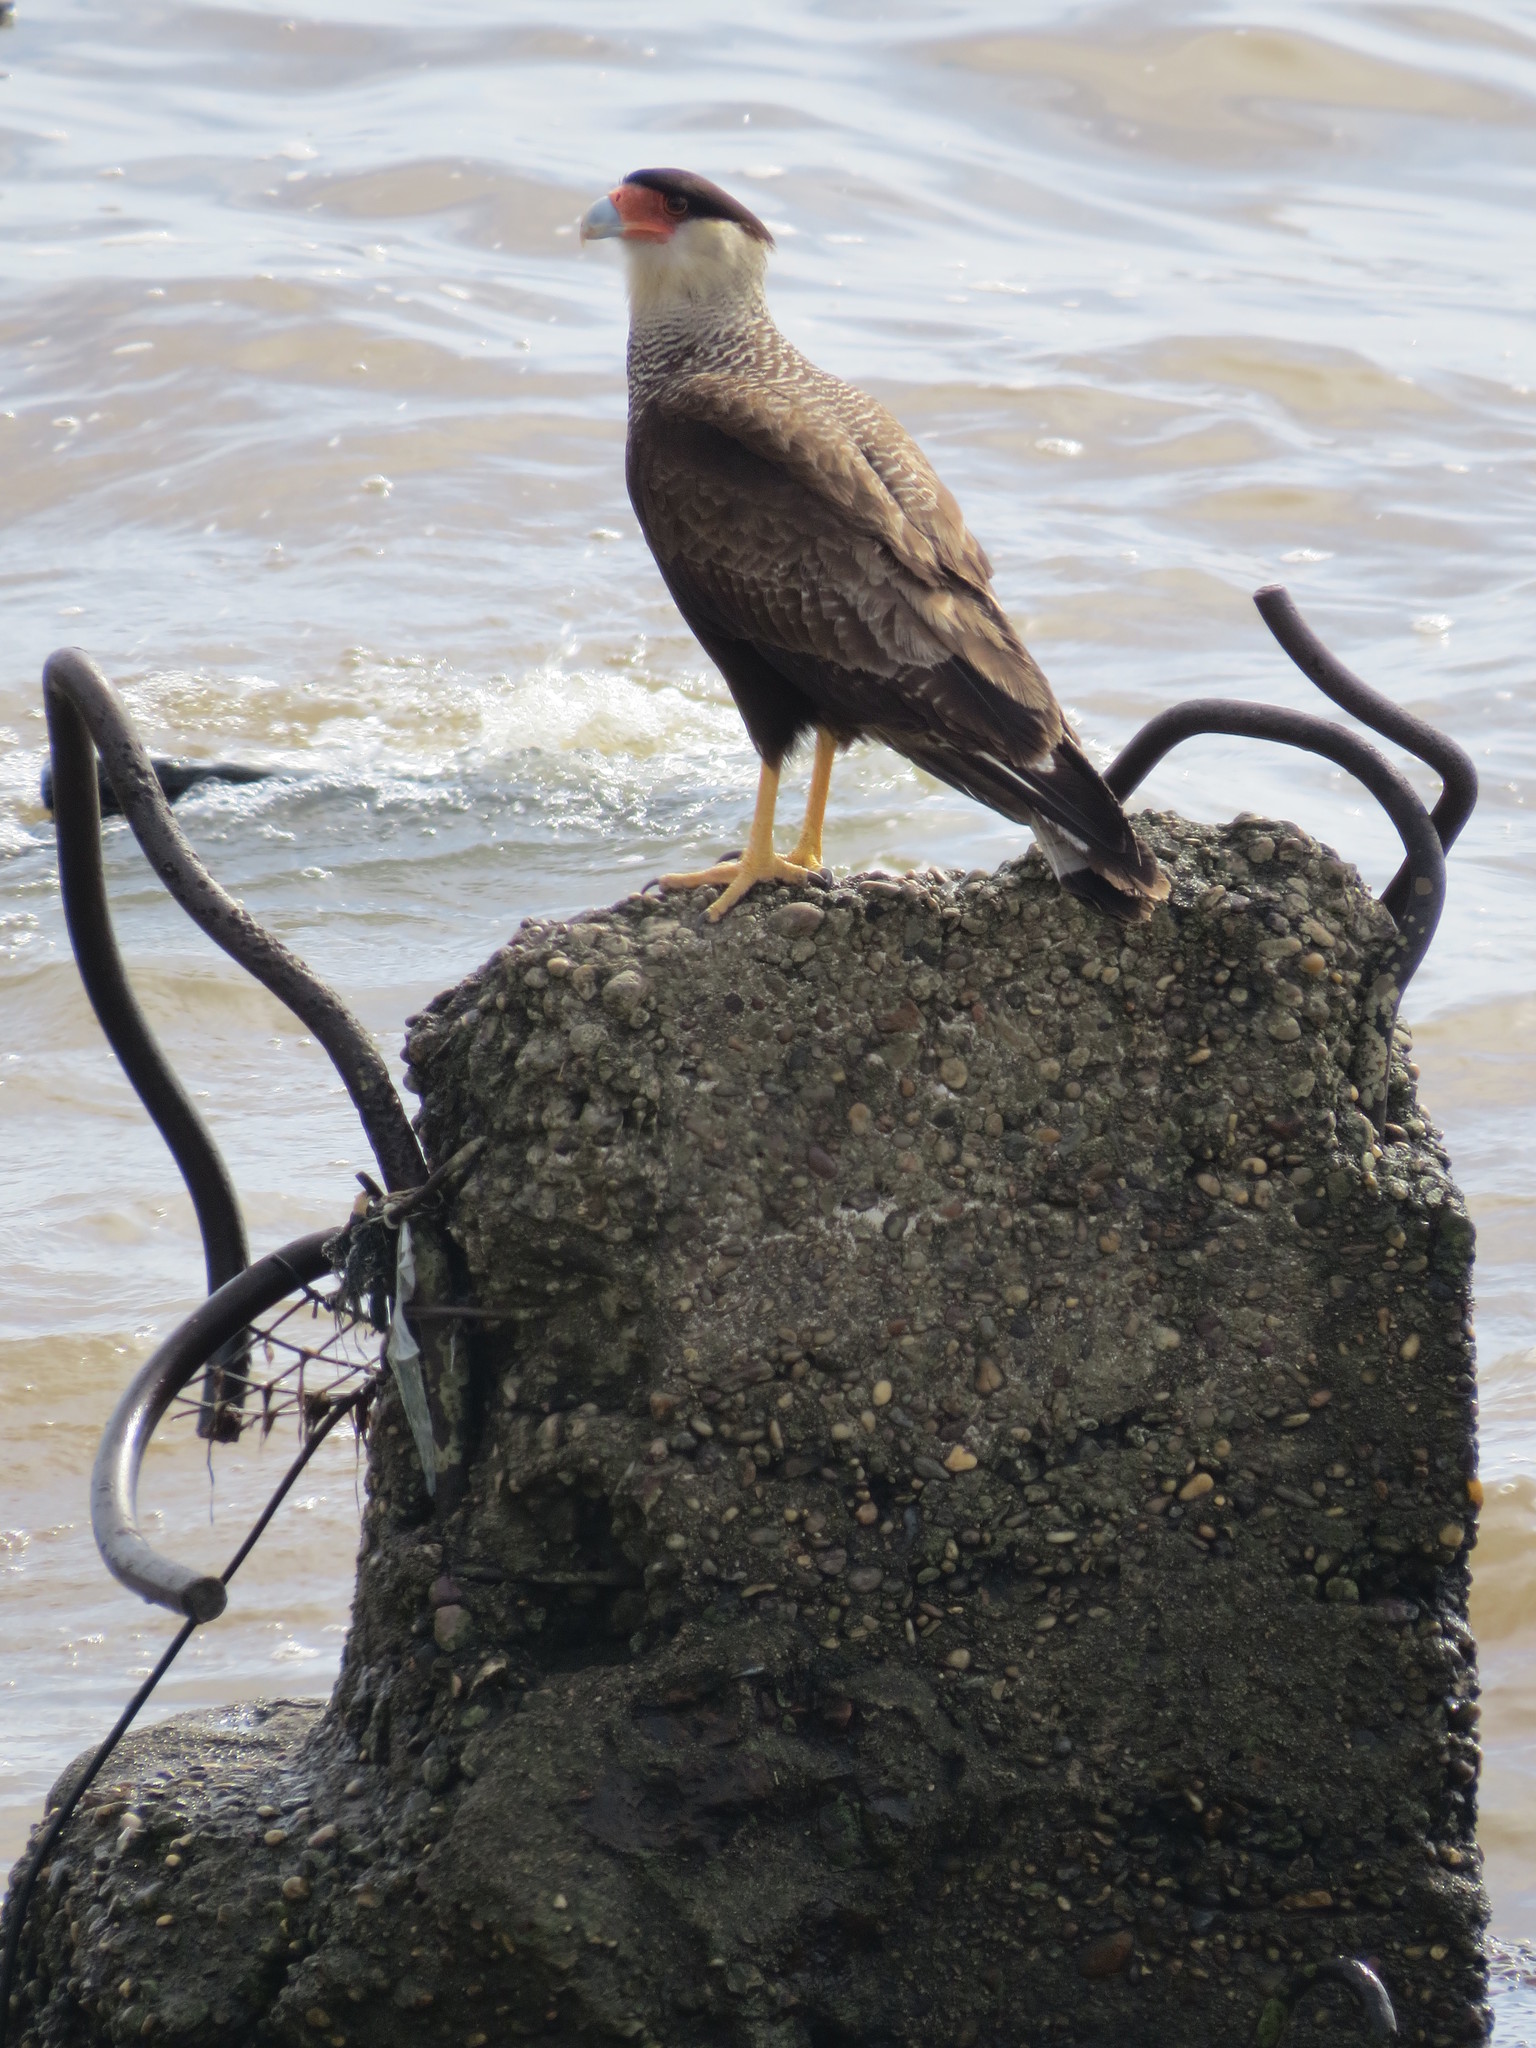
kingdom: Animalia
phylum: Chordata
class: Aves
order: Falconiformes
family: Falconidae
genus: Caracara
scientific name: Caracara plancus
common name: Southern caracara
